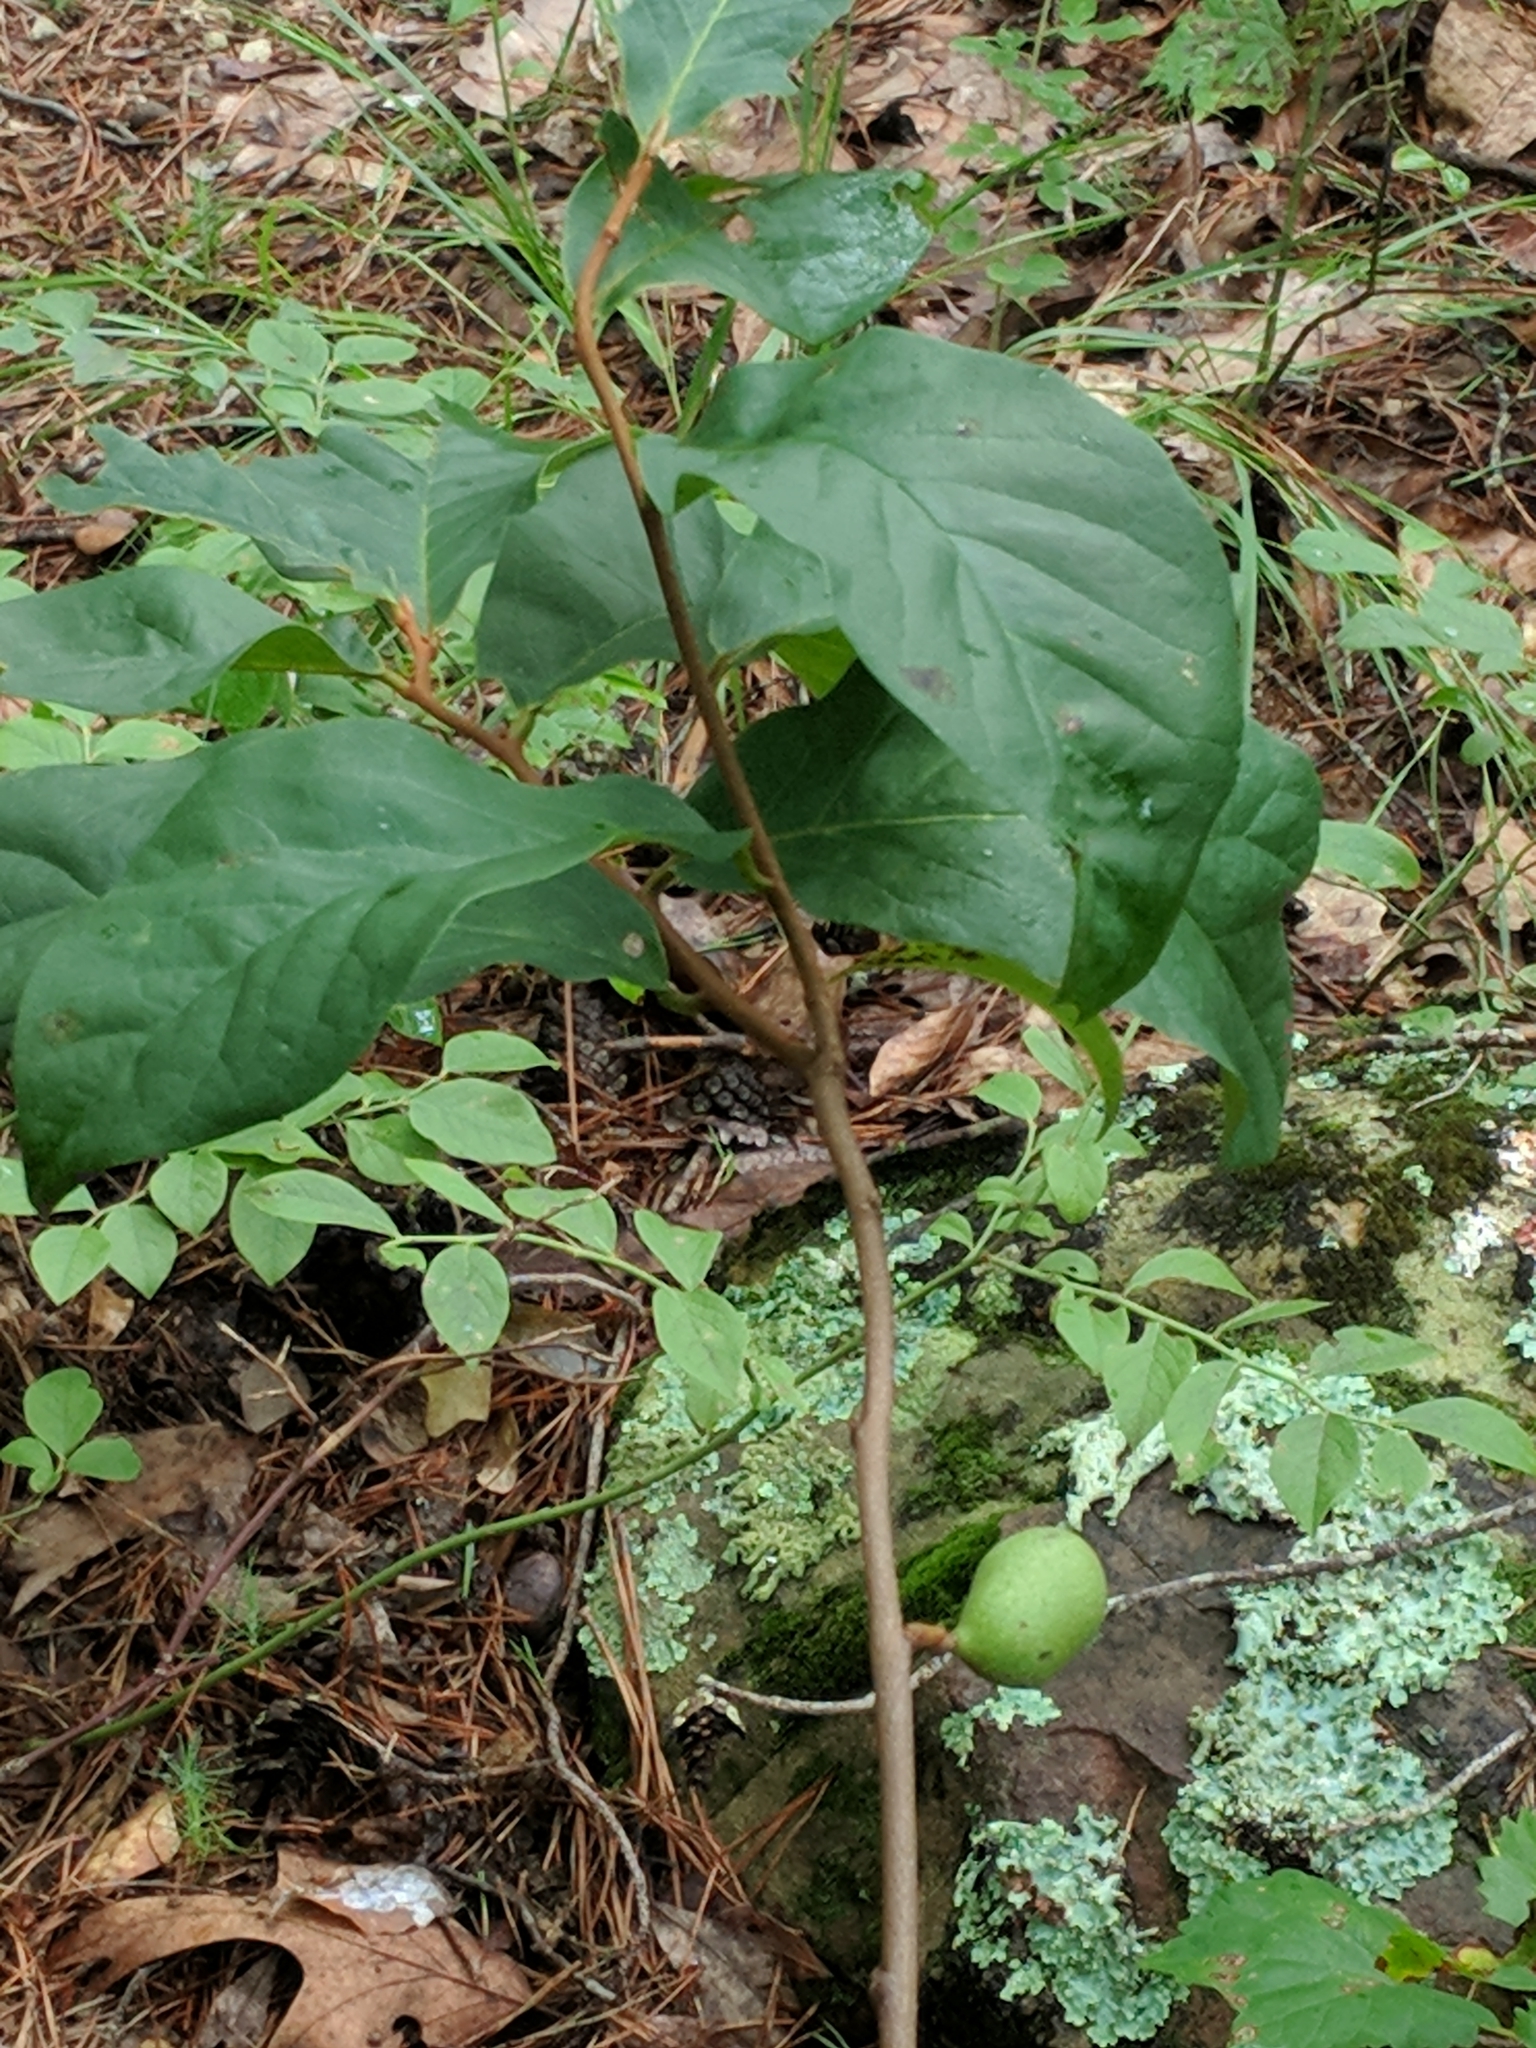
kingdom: Plantae
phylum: Tracheophyta
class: Magnoliopsida
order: Magnoliales
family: Annonaceae
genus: Asimina
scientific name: Asimina parviflora
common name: Dwarf pawpaw
